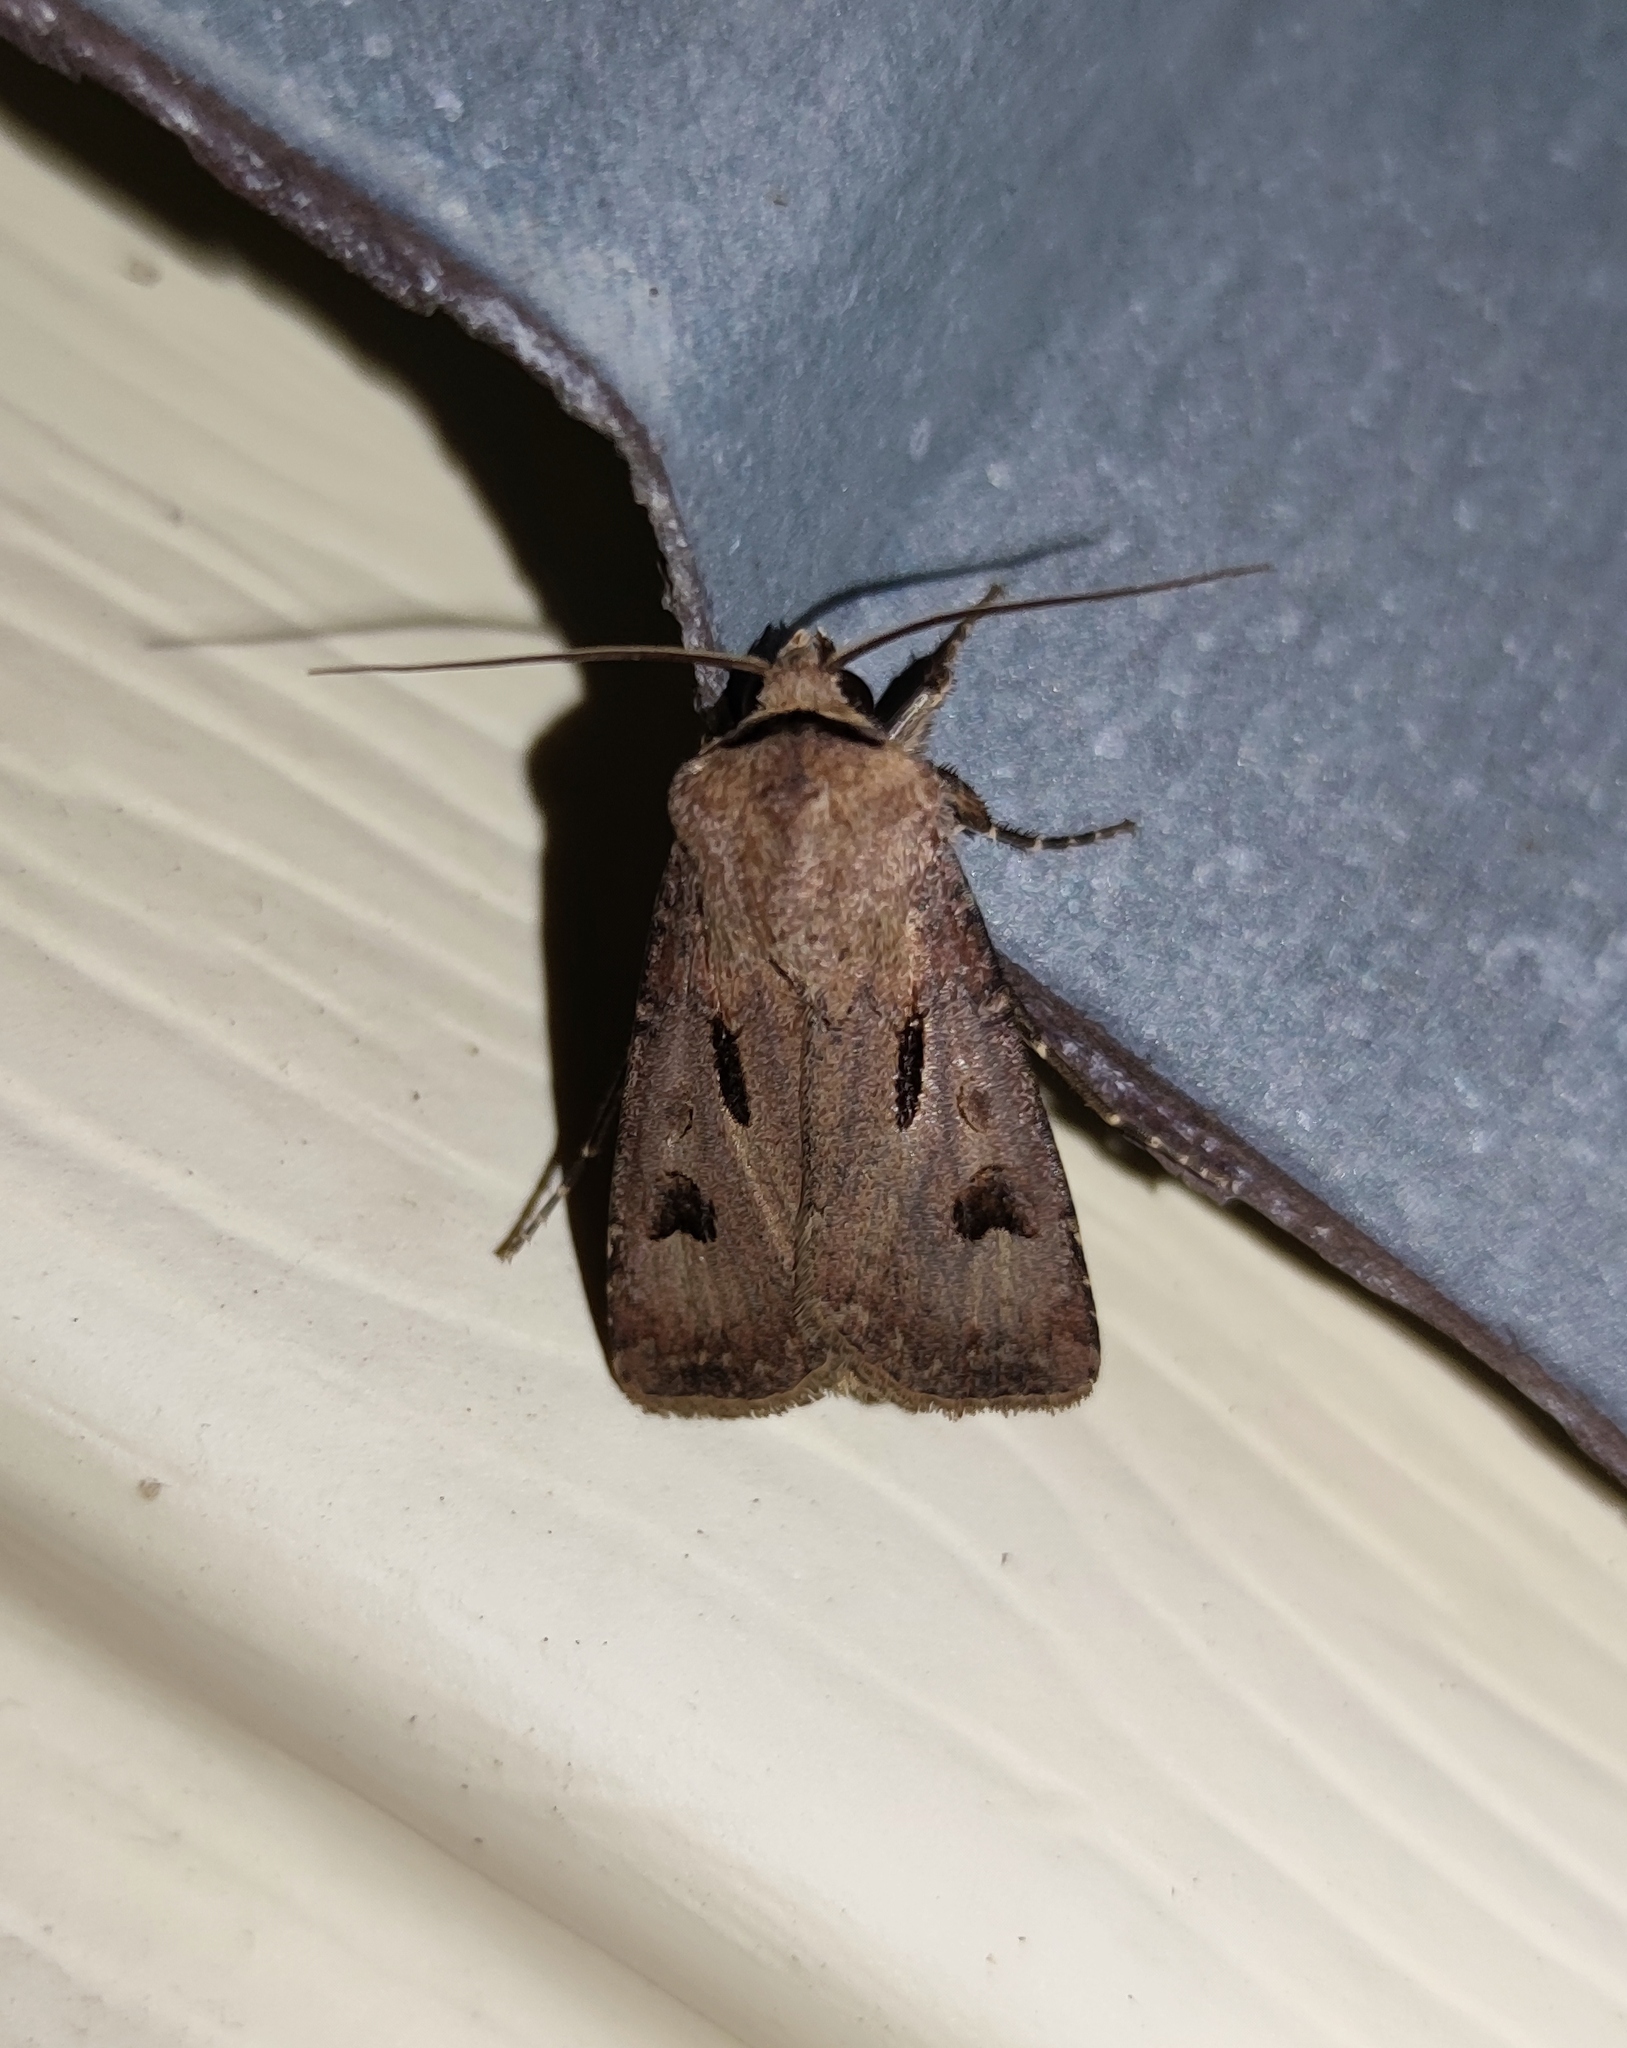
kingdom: Animalia
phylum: Arthropoda
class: Insecta
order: Lepidoptera
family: Noctuidae
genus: Agrotis
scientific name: Agrotis exclamationis
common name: Heart and dart
